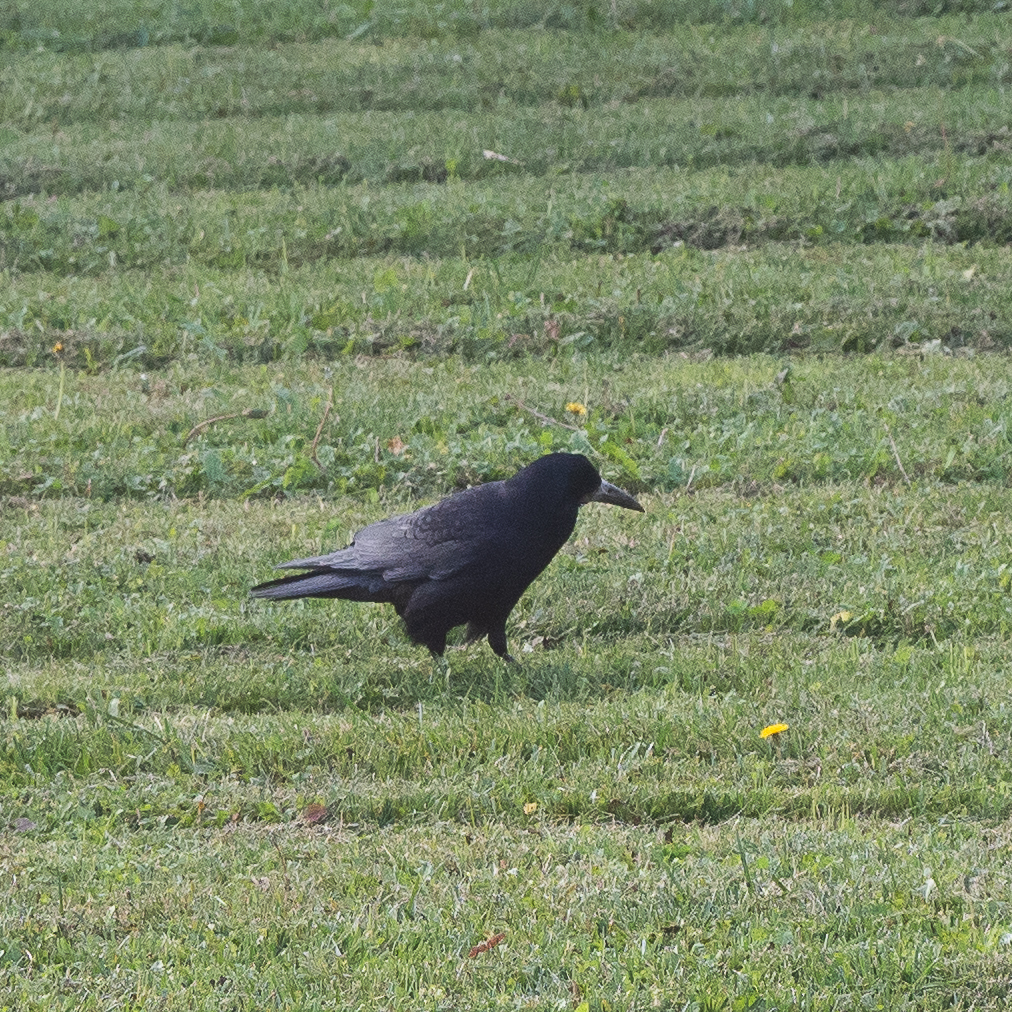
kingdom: Animalia
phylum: Chordata
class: Aves
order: Passeriformes
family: Corvidae
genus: Corvus
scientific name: Corvus frugilegus
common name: Rook
